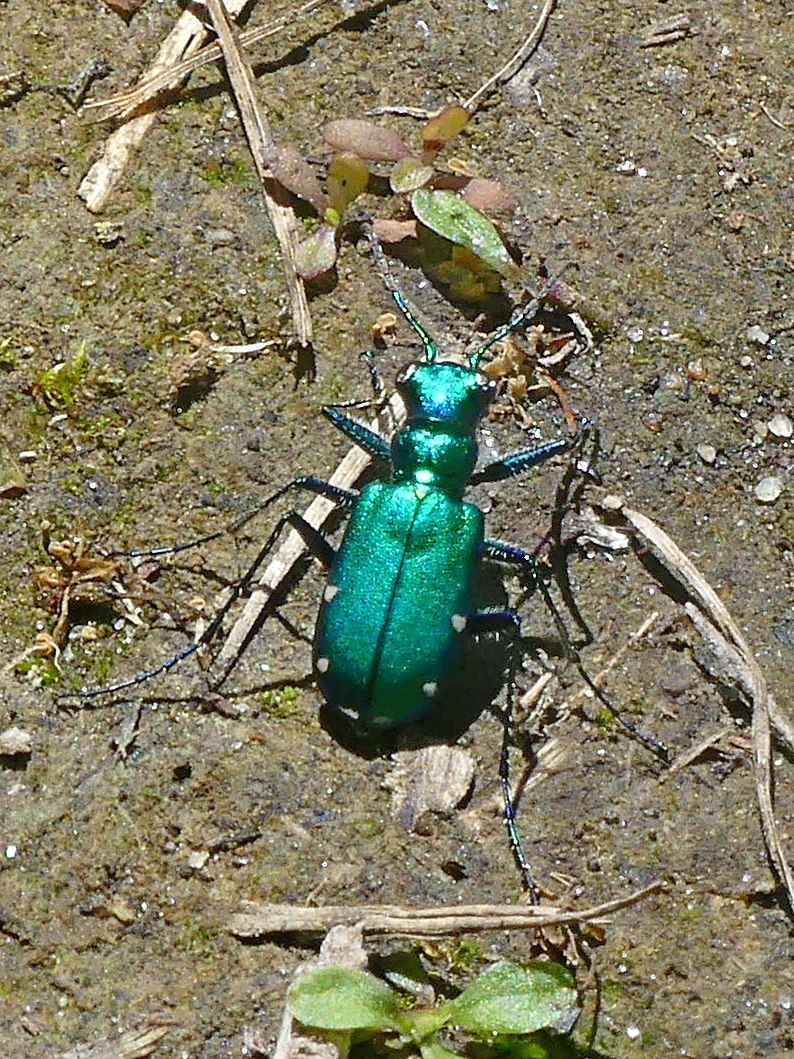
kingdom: Animalia
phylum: Arthropoda
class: Insecta
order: Coleoptera
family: Carabidae
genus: Cicindela
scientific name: Cicindela sexguttata
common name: Six-spotted tiger beetle
